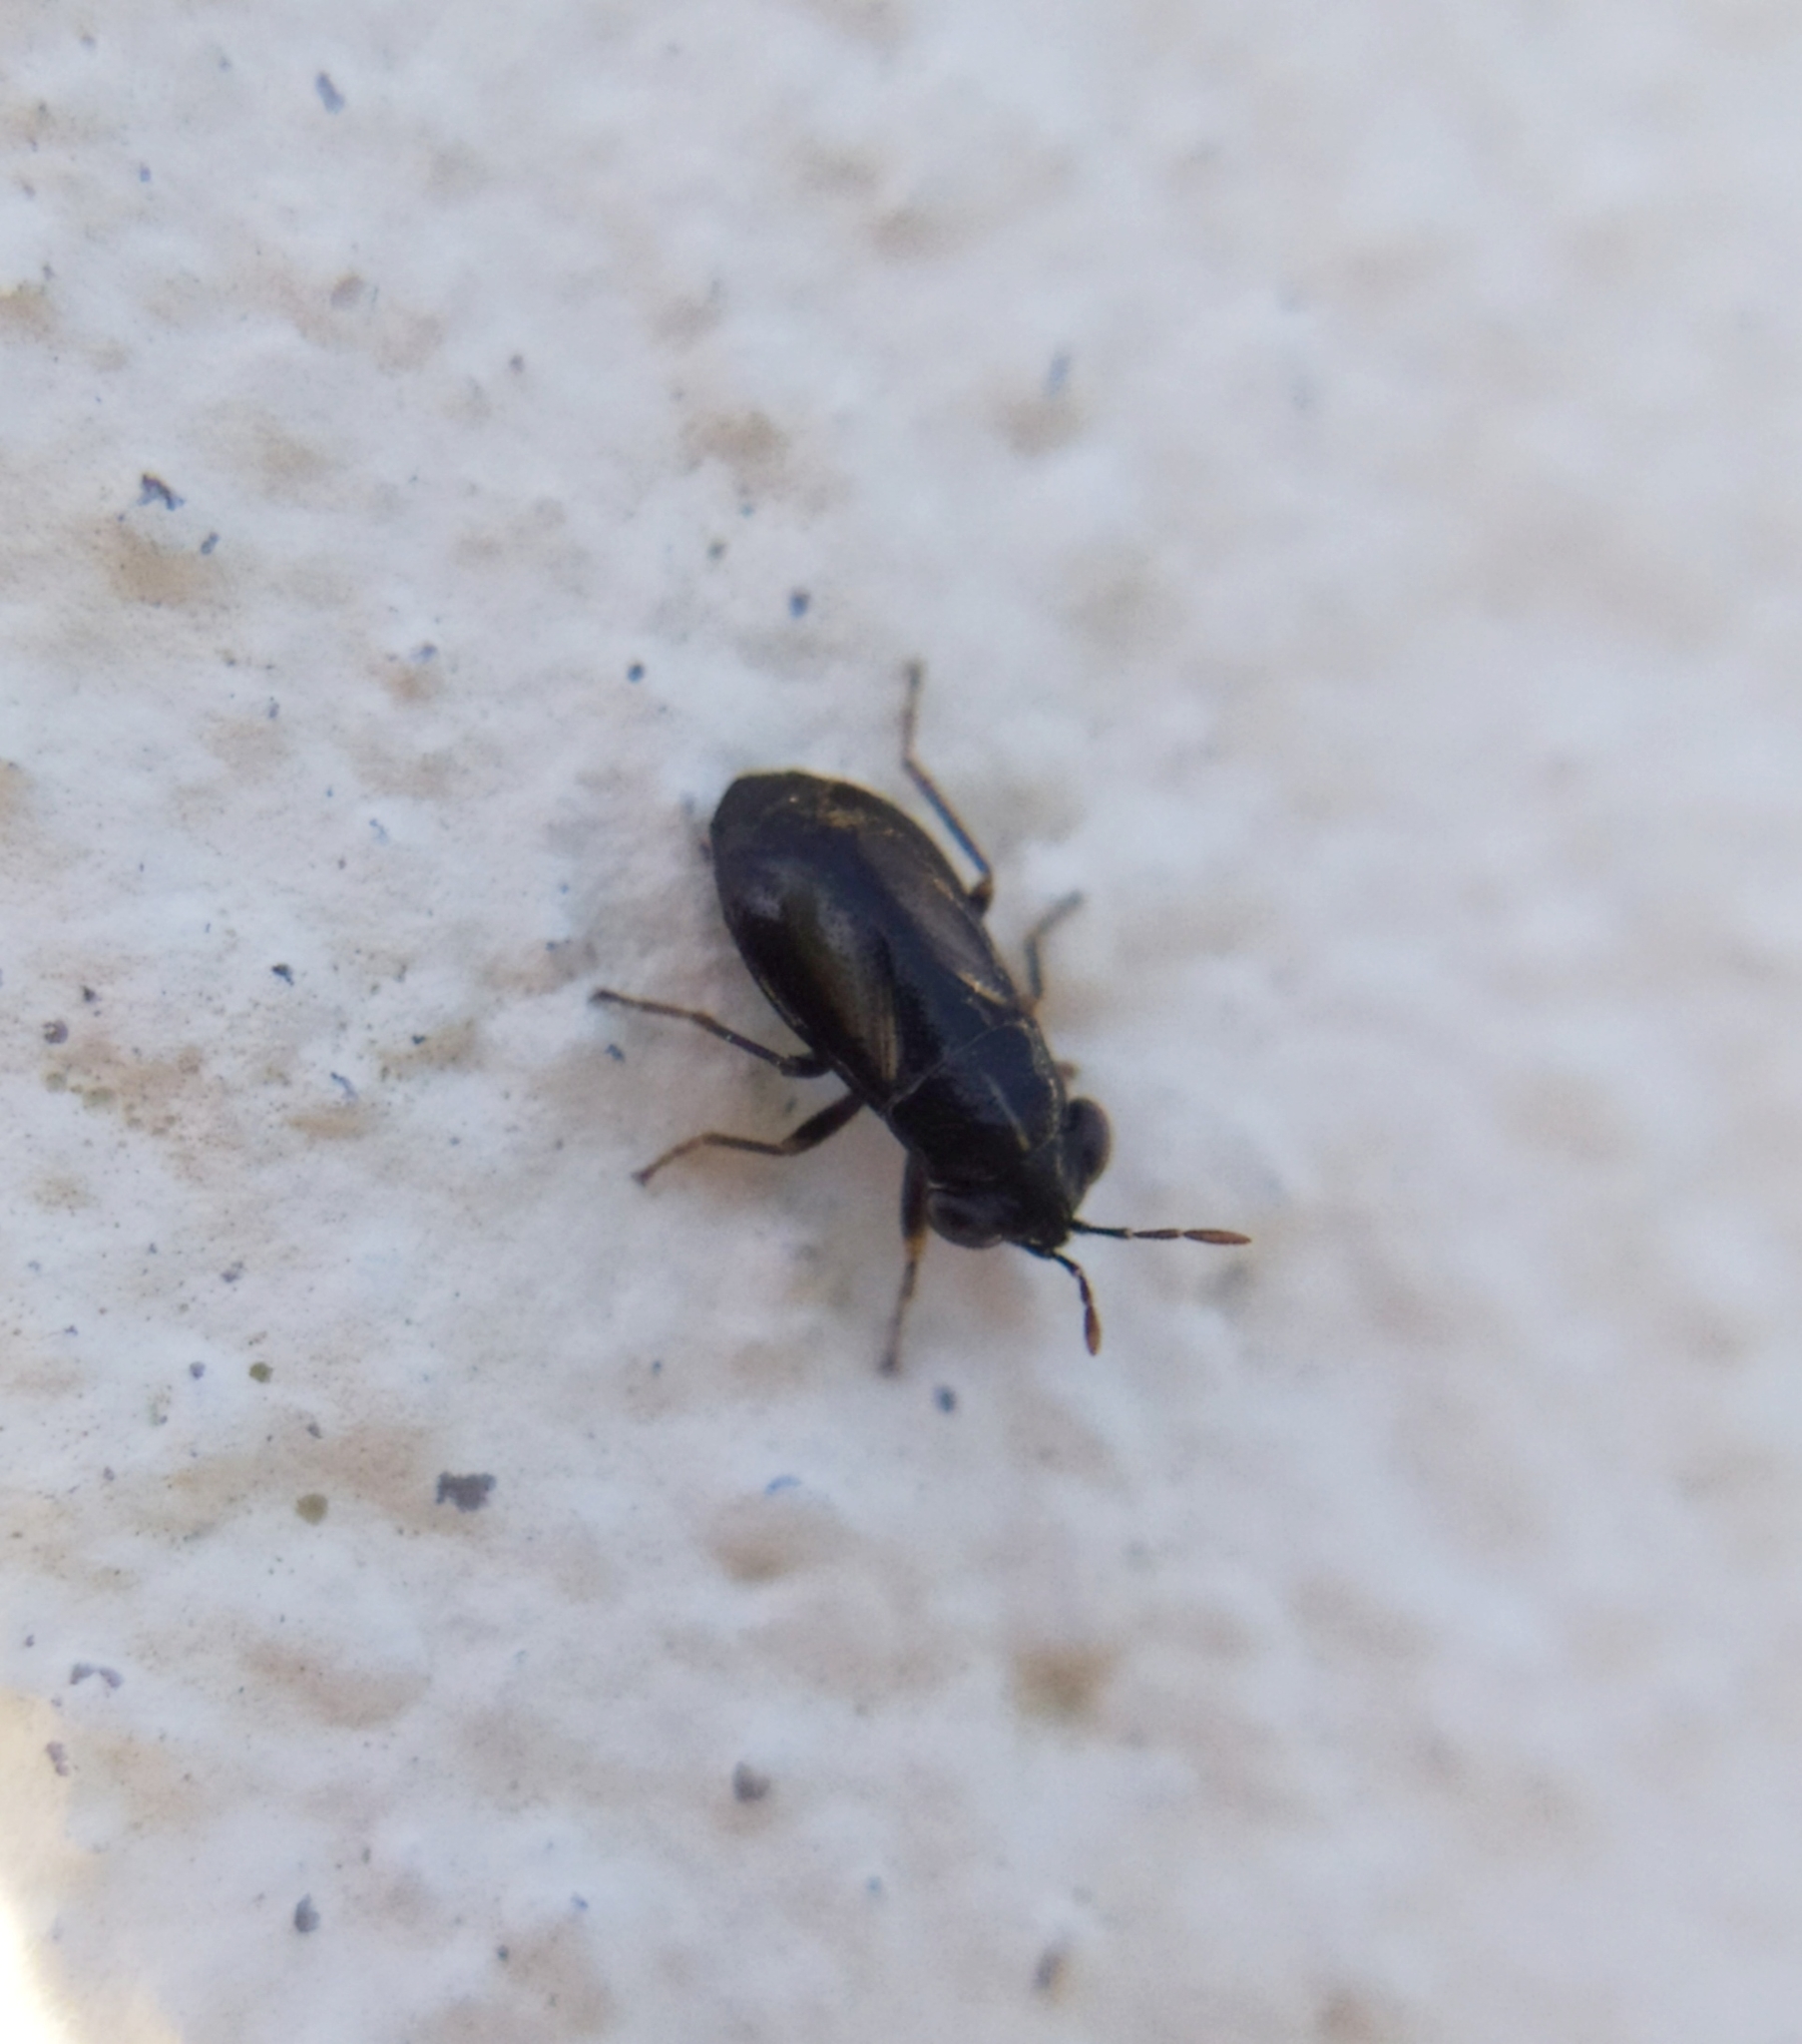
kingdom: Animalia
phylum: Arthropoda
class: Insecta
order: Hemiptera
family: Geocoridae
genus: Geocoris
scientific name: Geocoris ater
